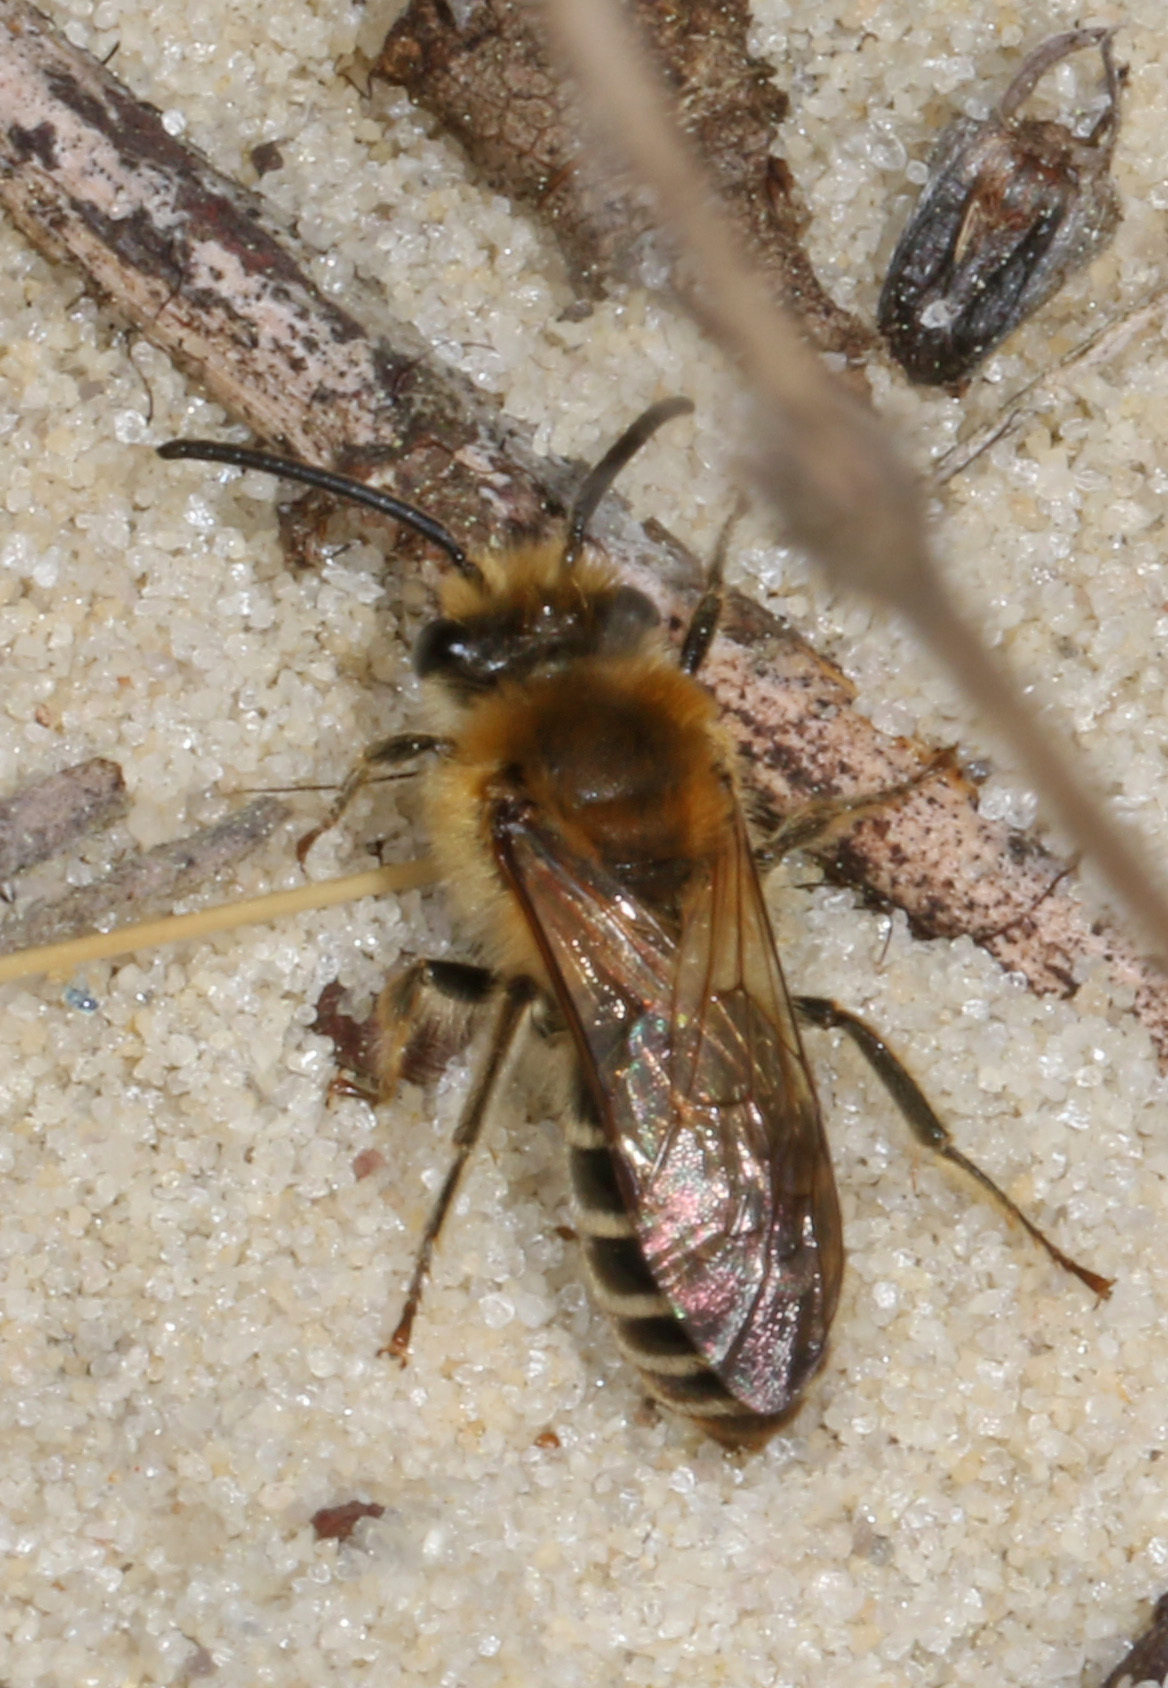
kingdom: Animalia
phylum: Arthropoda
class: Insecta
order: Hymenoptera
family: Colletidae
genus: Colletes
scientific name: Colletes thoracicus
